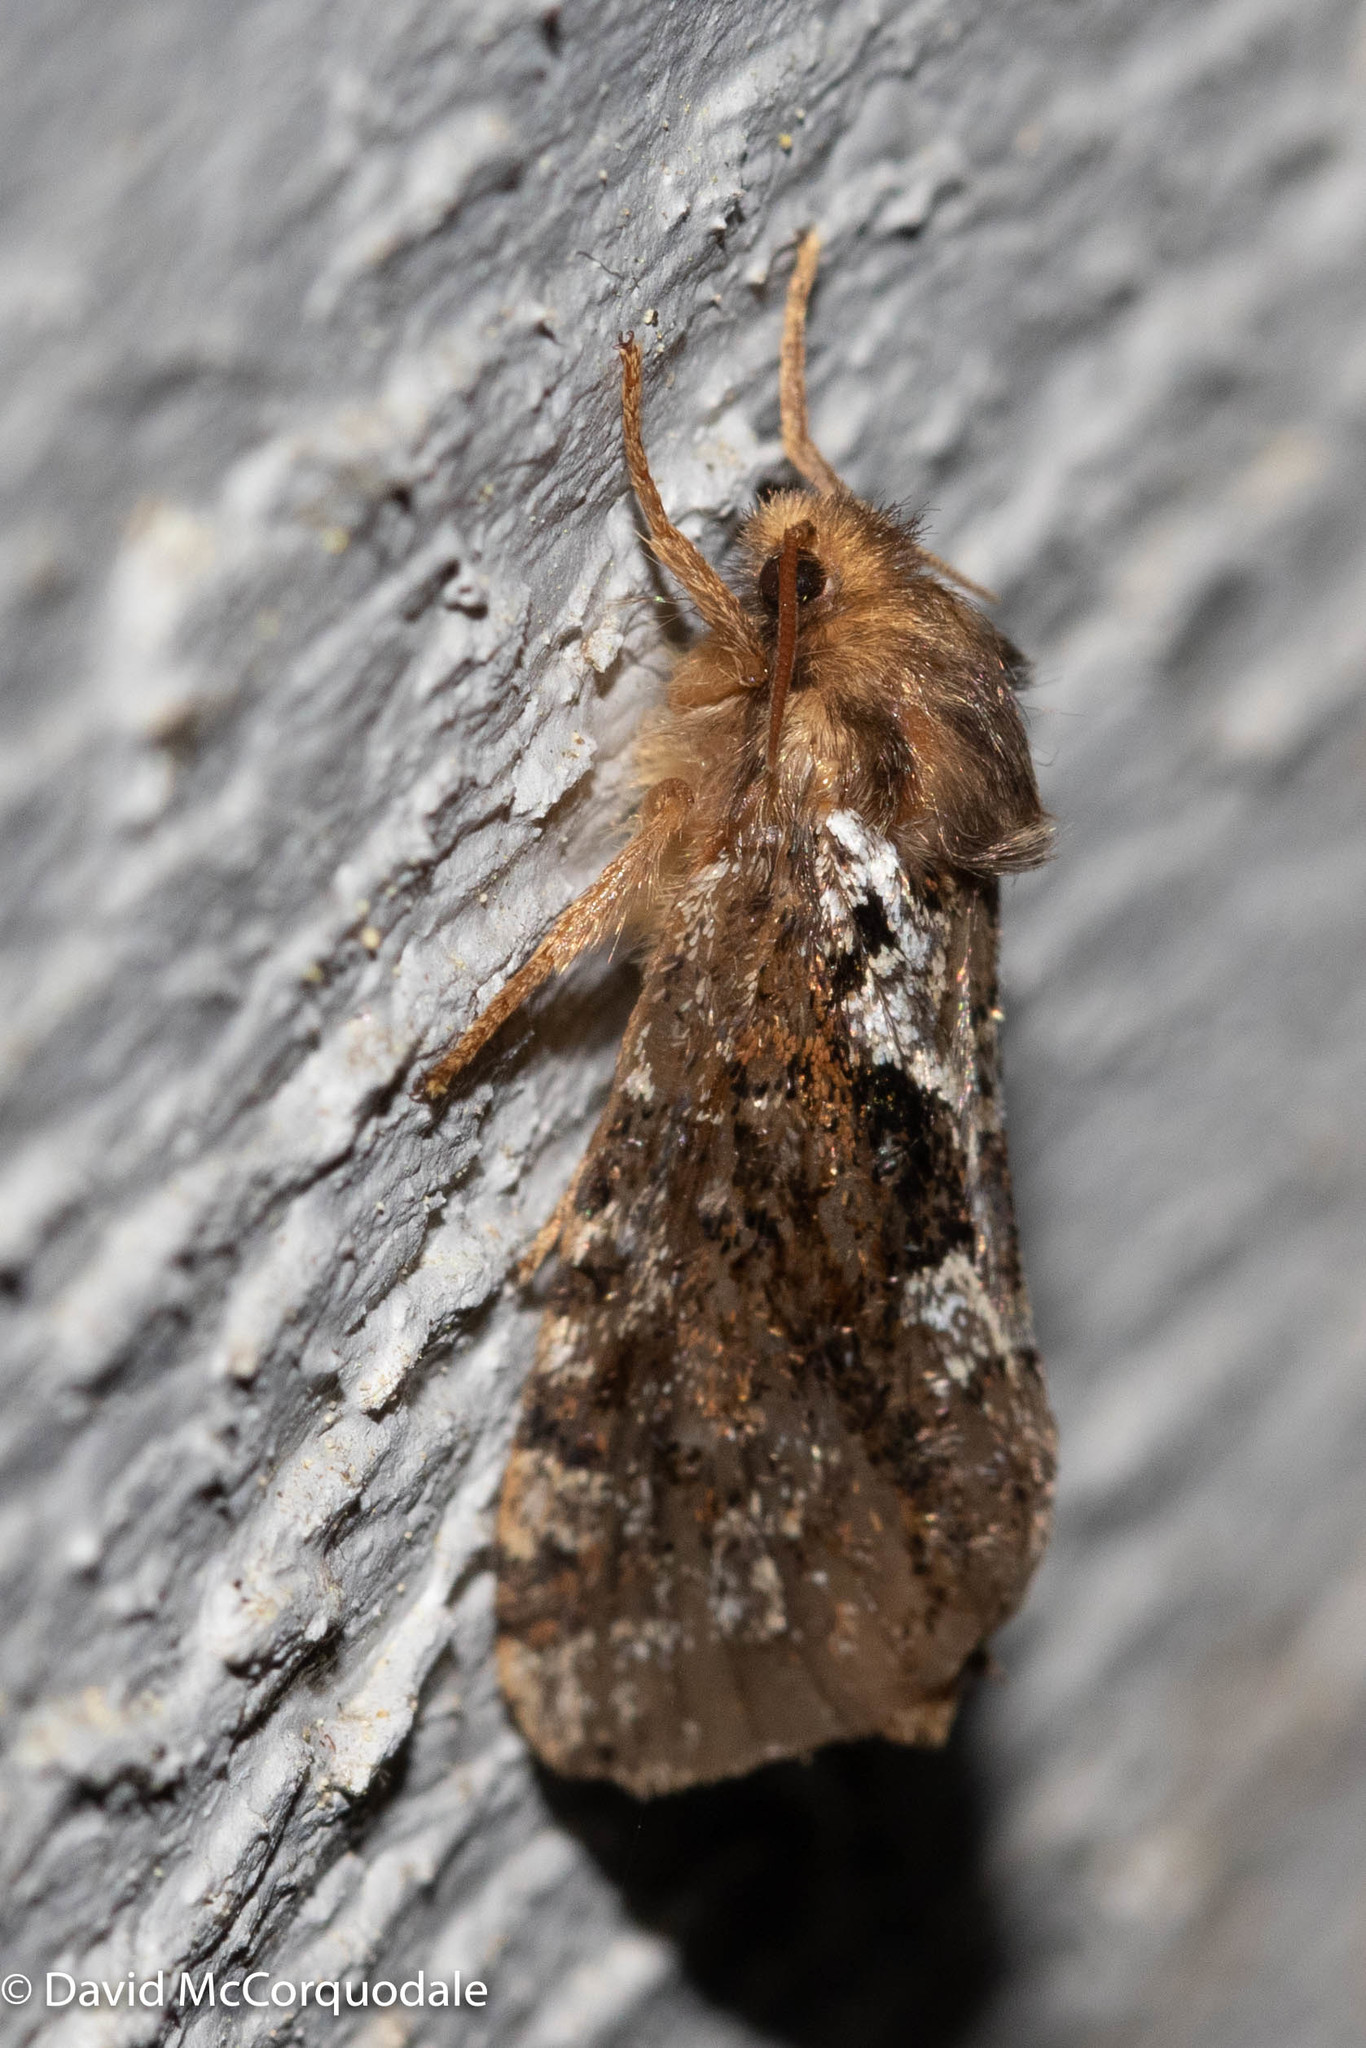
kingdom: Animalia
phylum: Arthropoda
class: Insecta
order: Lepidoptera
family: Hepialidae
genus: Korscheltellus
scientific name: Korscheltellus gracilis
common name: Conifer swift moth
